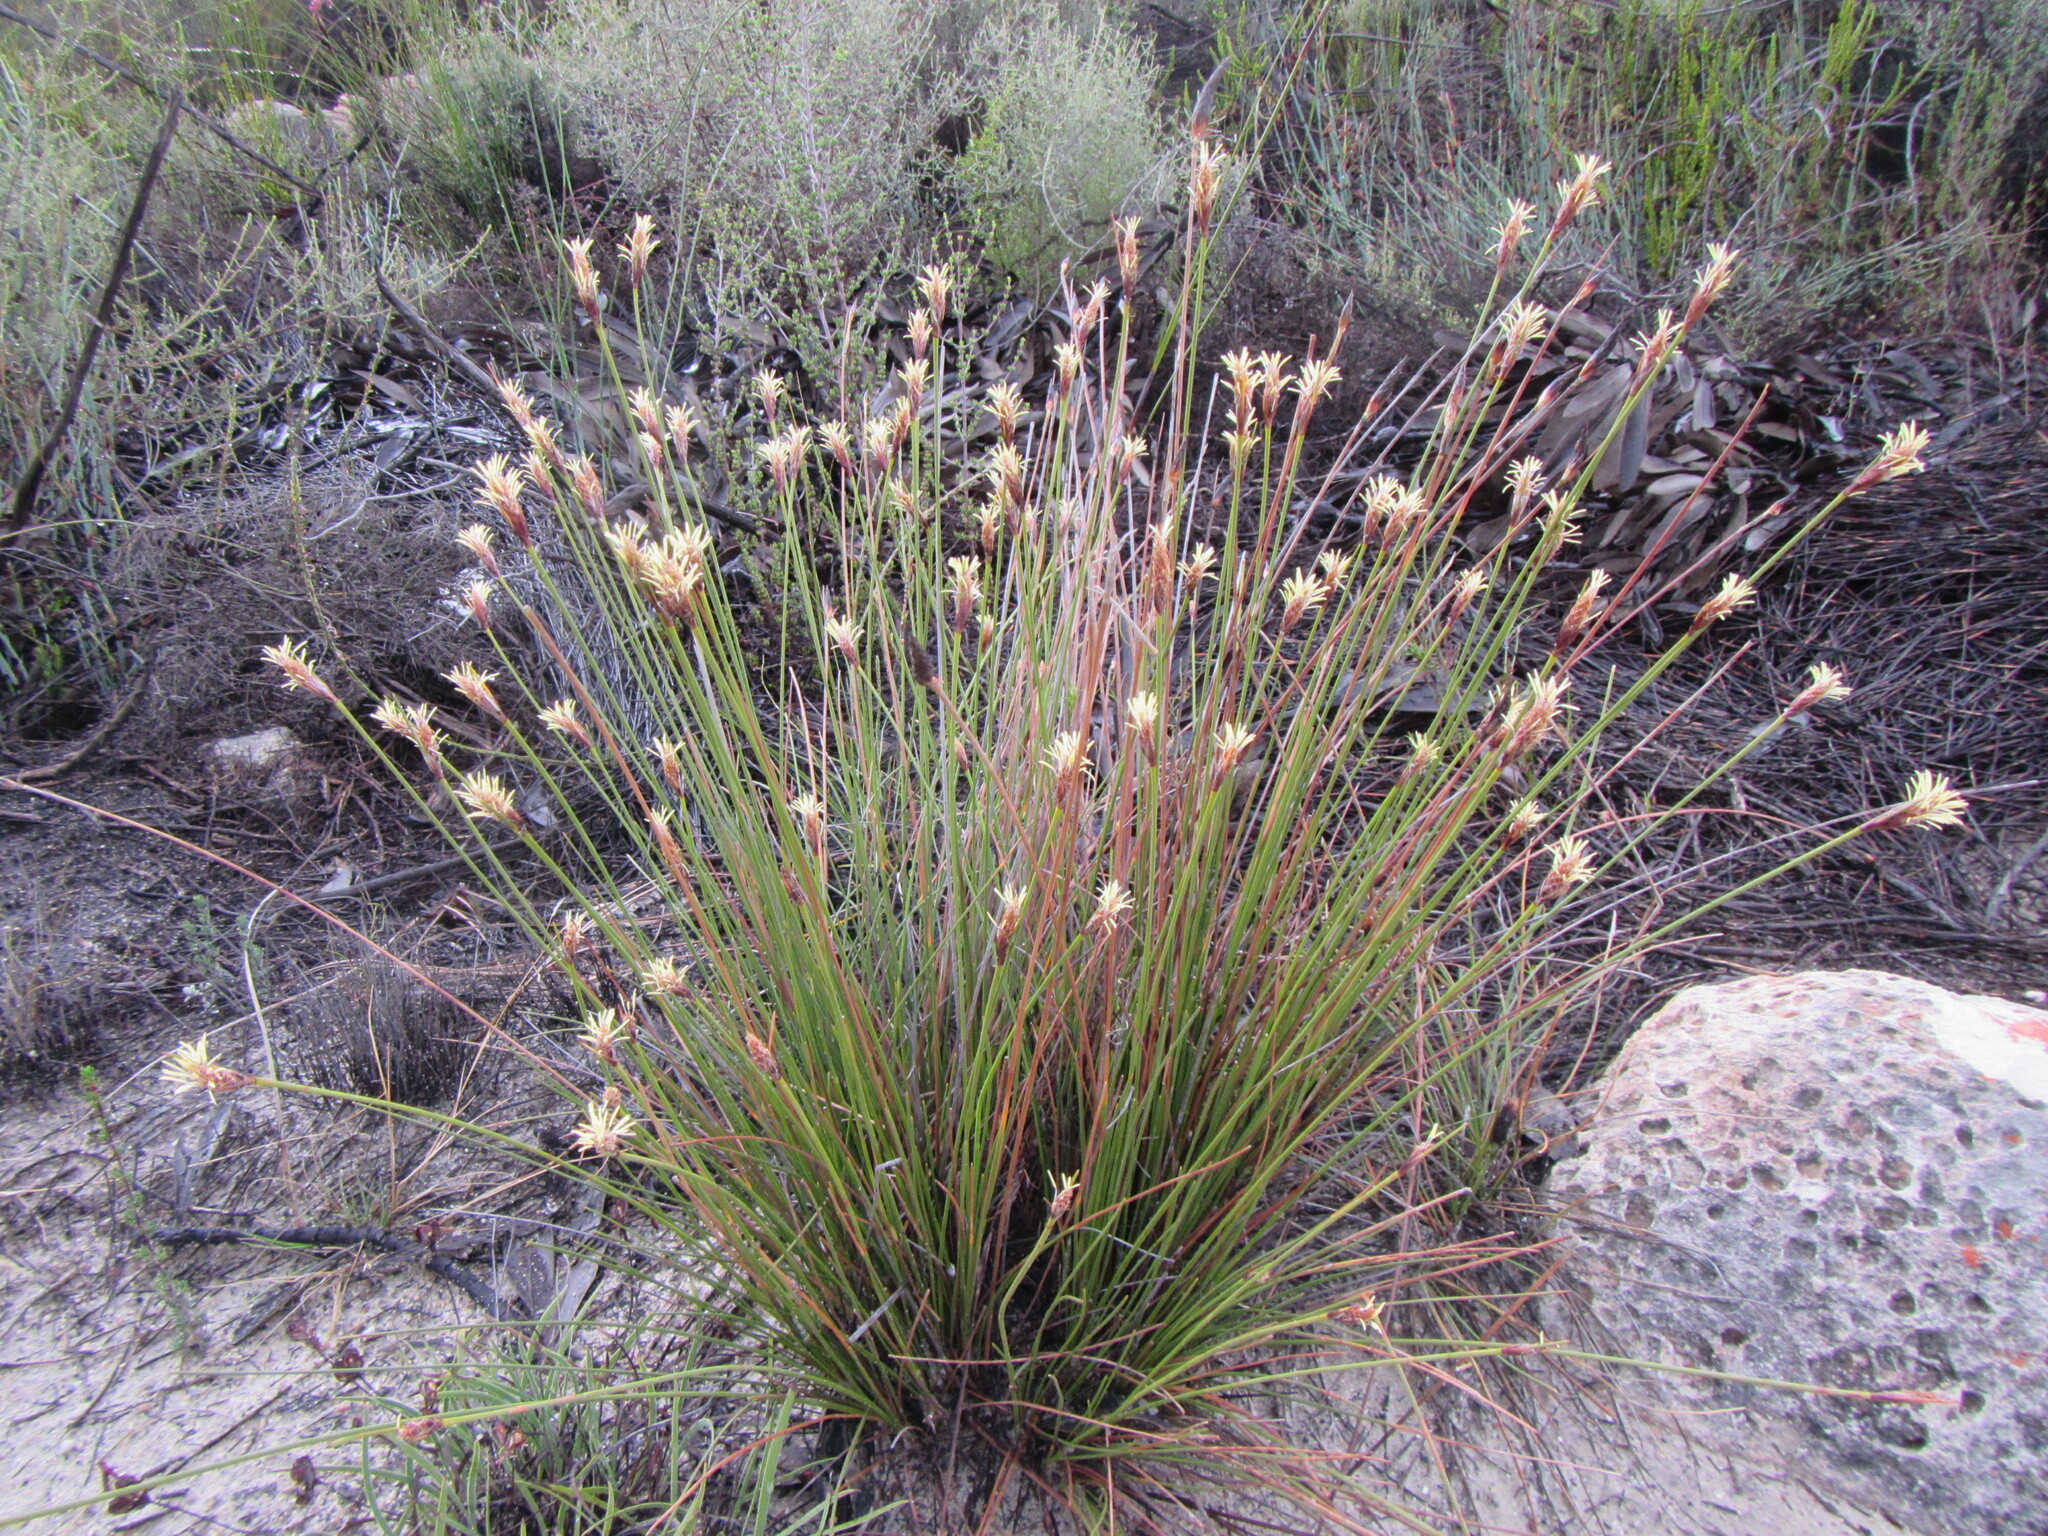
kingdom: Plantae
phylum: Tracheophyta
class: Liliopsida
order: Poales
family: Cyperaceae
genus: Ficinia
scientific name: Ficinia deusta
